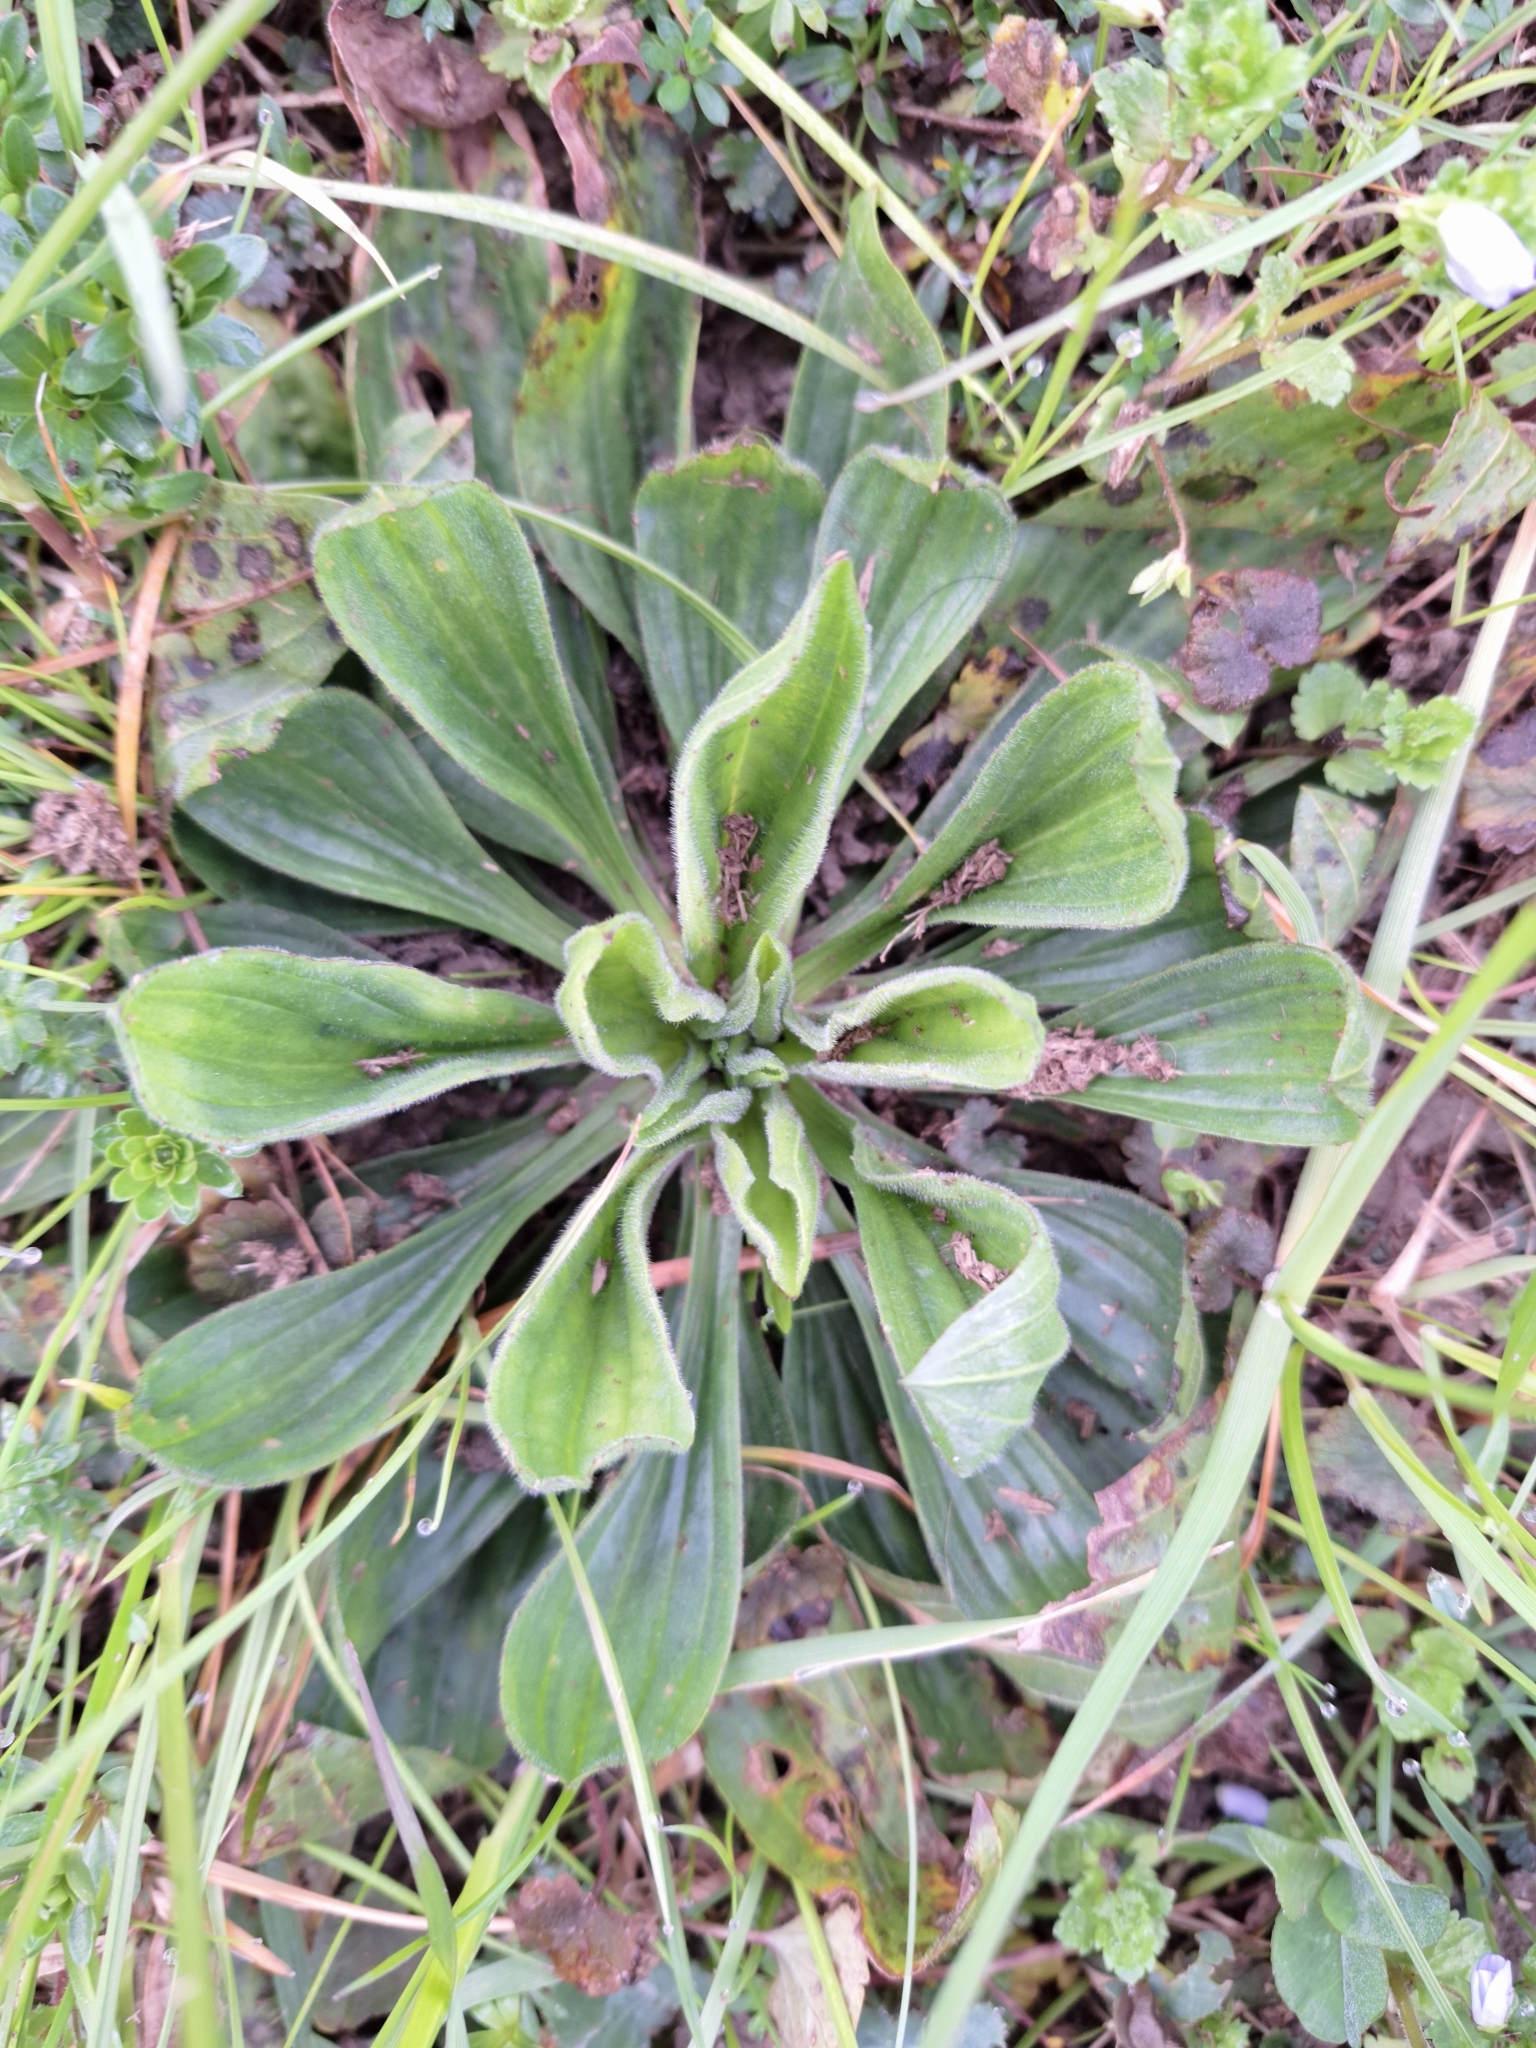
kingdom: Plantae
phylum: Tracheophyta
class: Magnoliopsida
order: Lamiales
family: Plantaginaceae
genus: Plantago
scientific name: Plantago lanceolata
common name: Ribwort plantain
